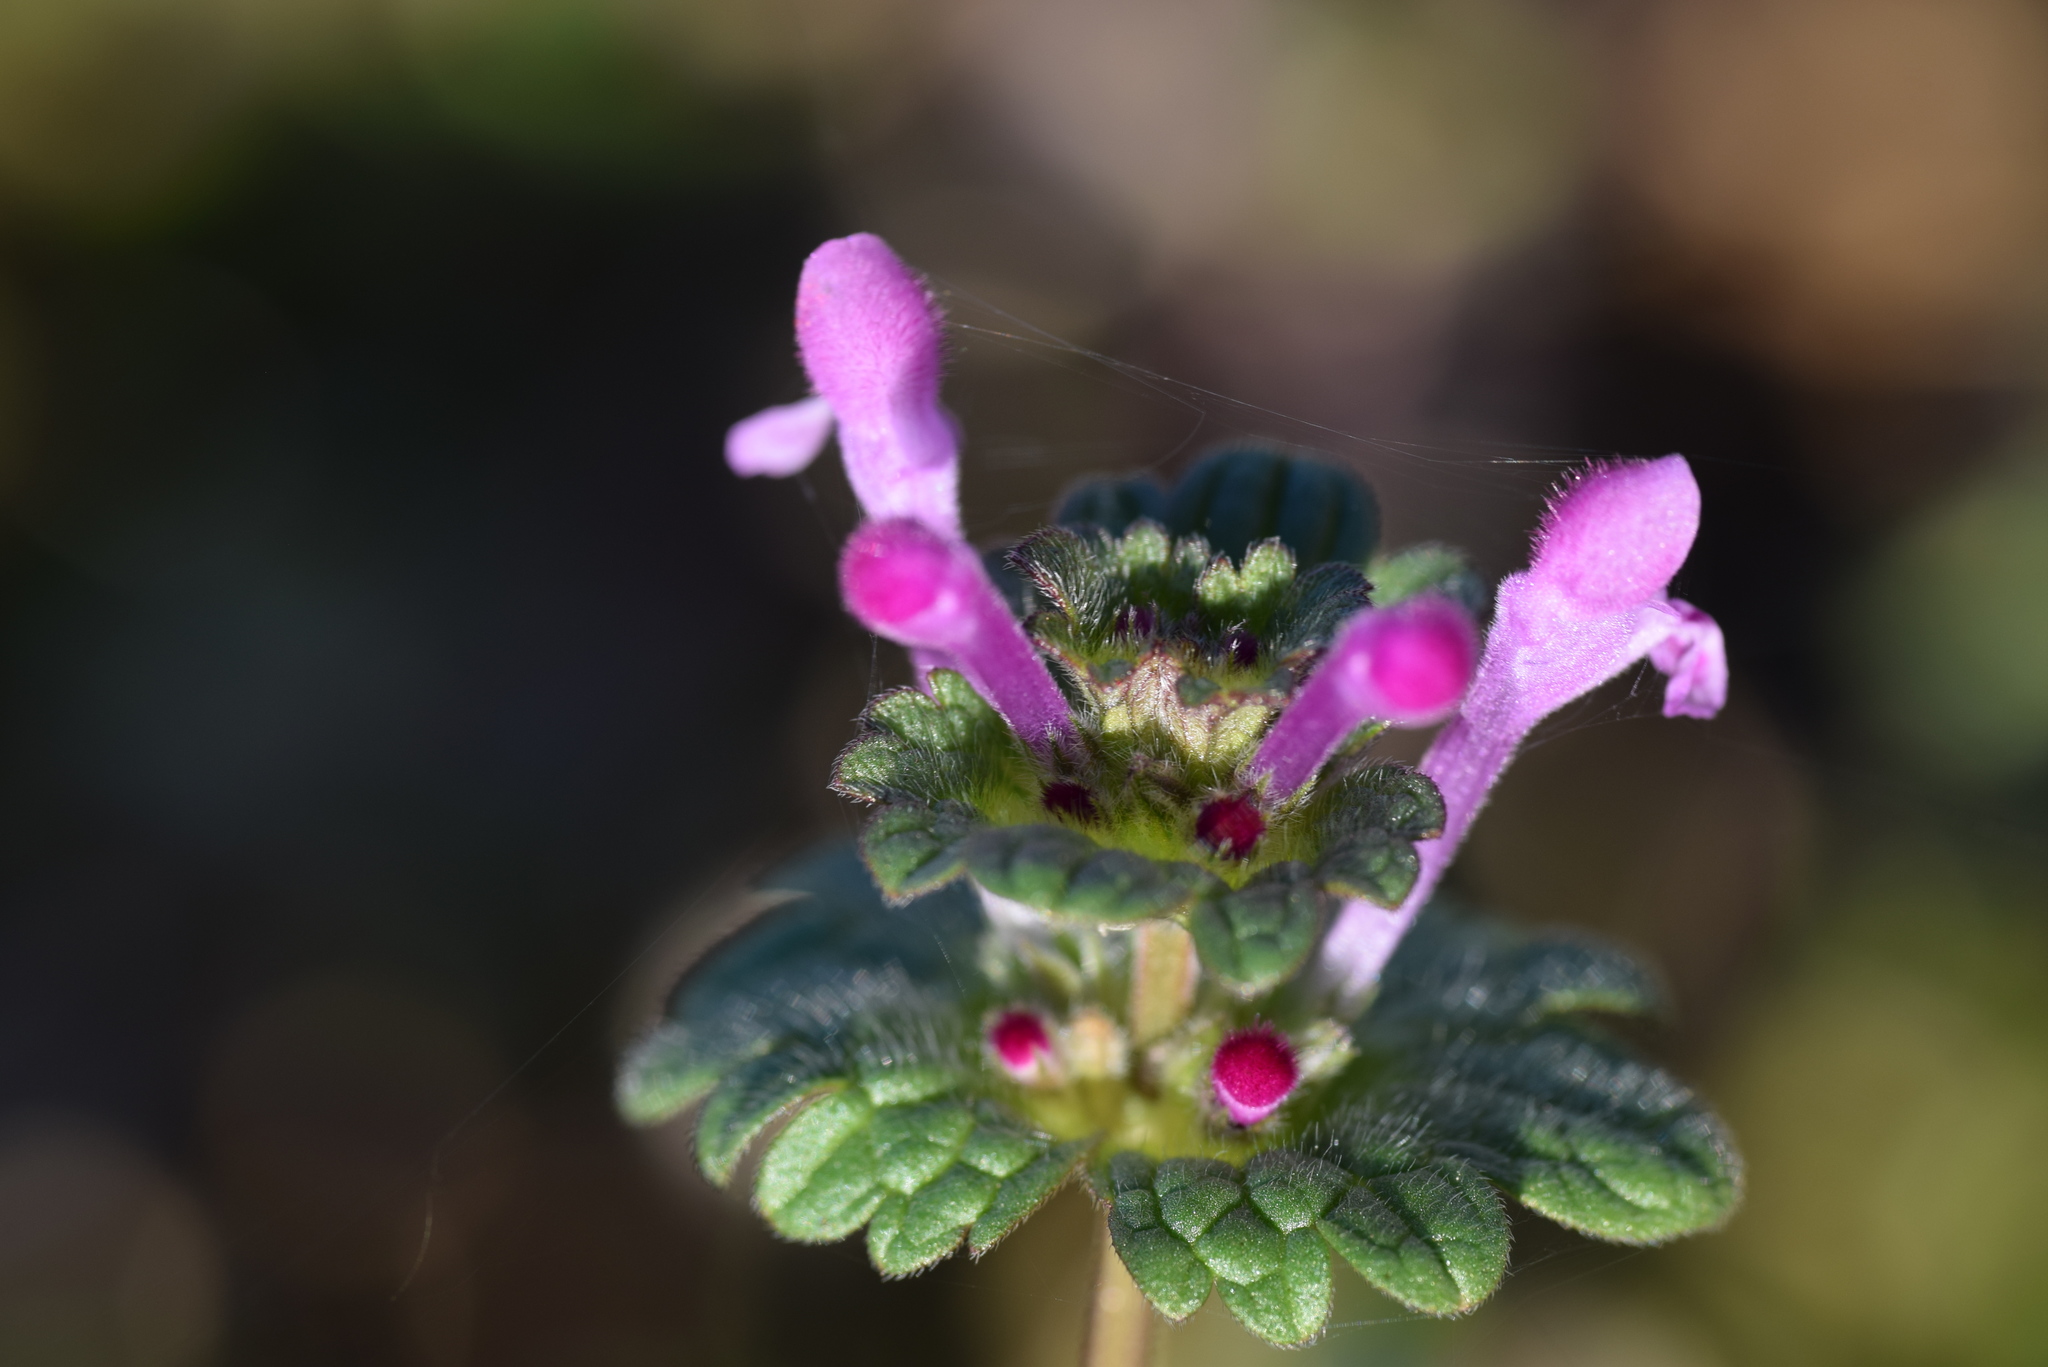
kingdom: Plantae
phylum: Tracheophyta
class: Magnoliopsida
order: Lamiales
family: Lamiaceae
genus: Lamium
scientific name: Lamium amplexicaule
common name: Henbit dead-nettle
